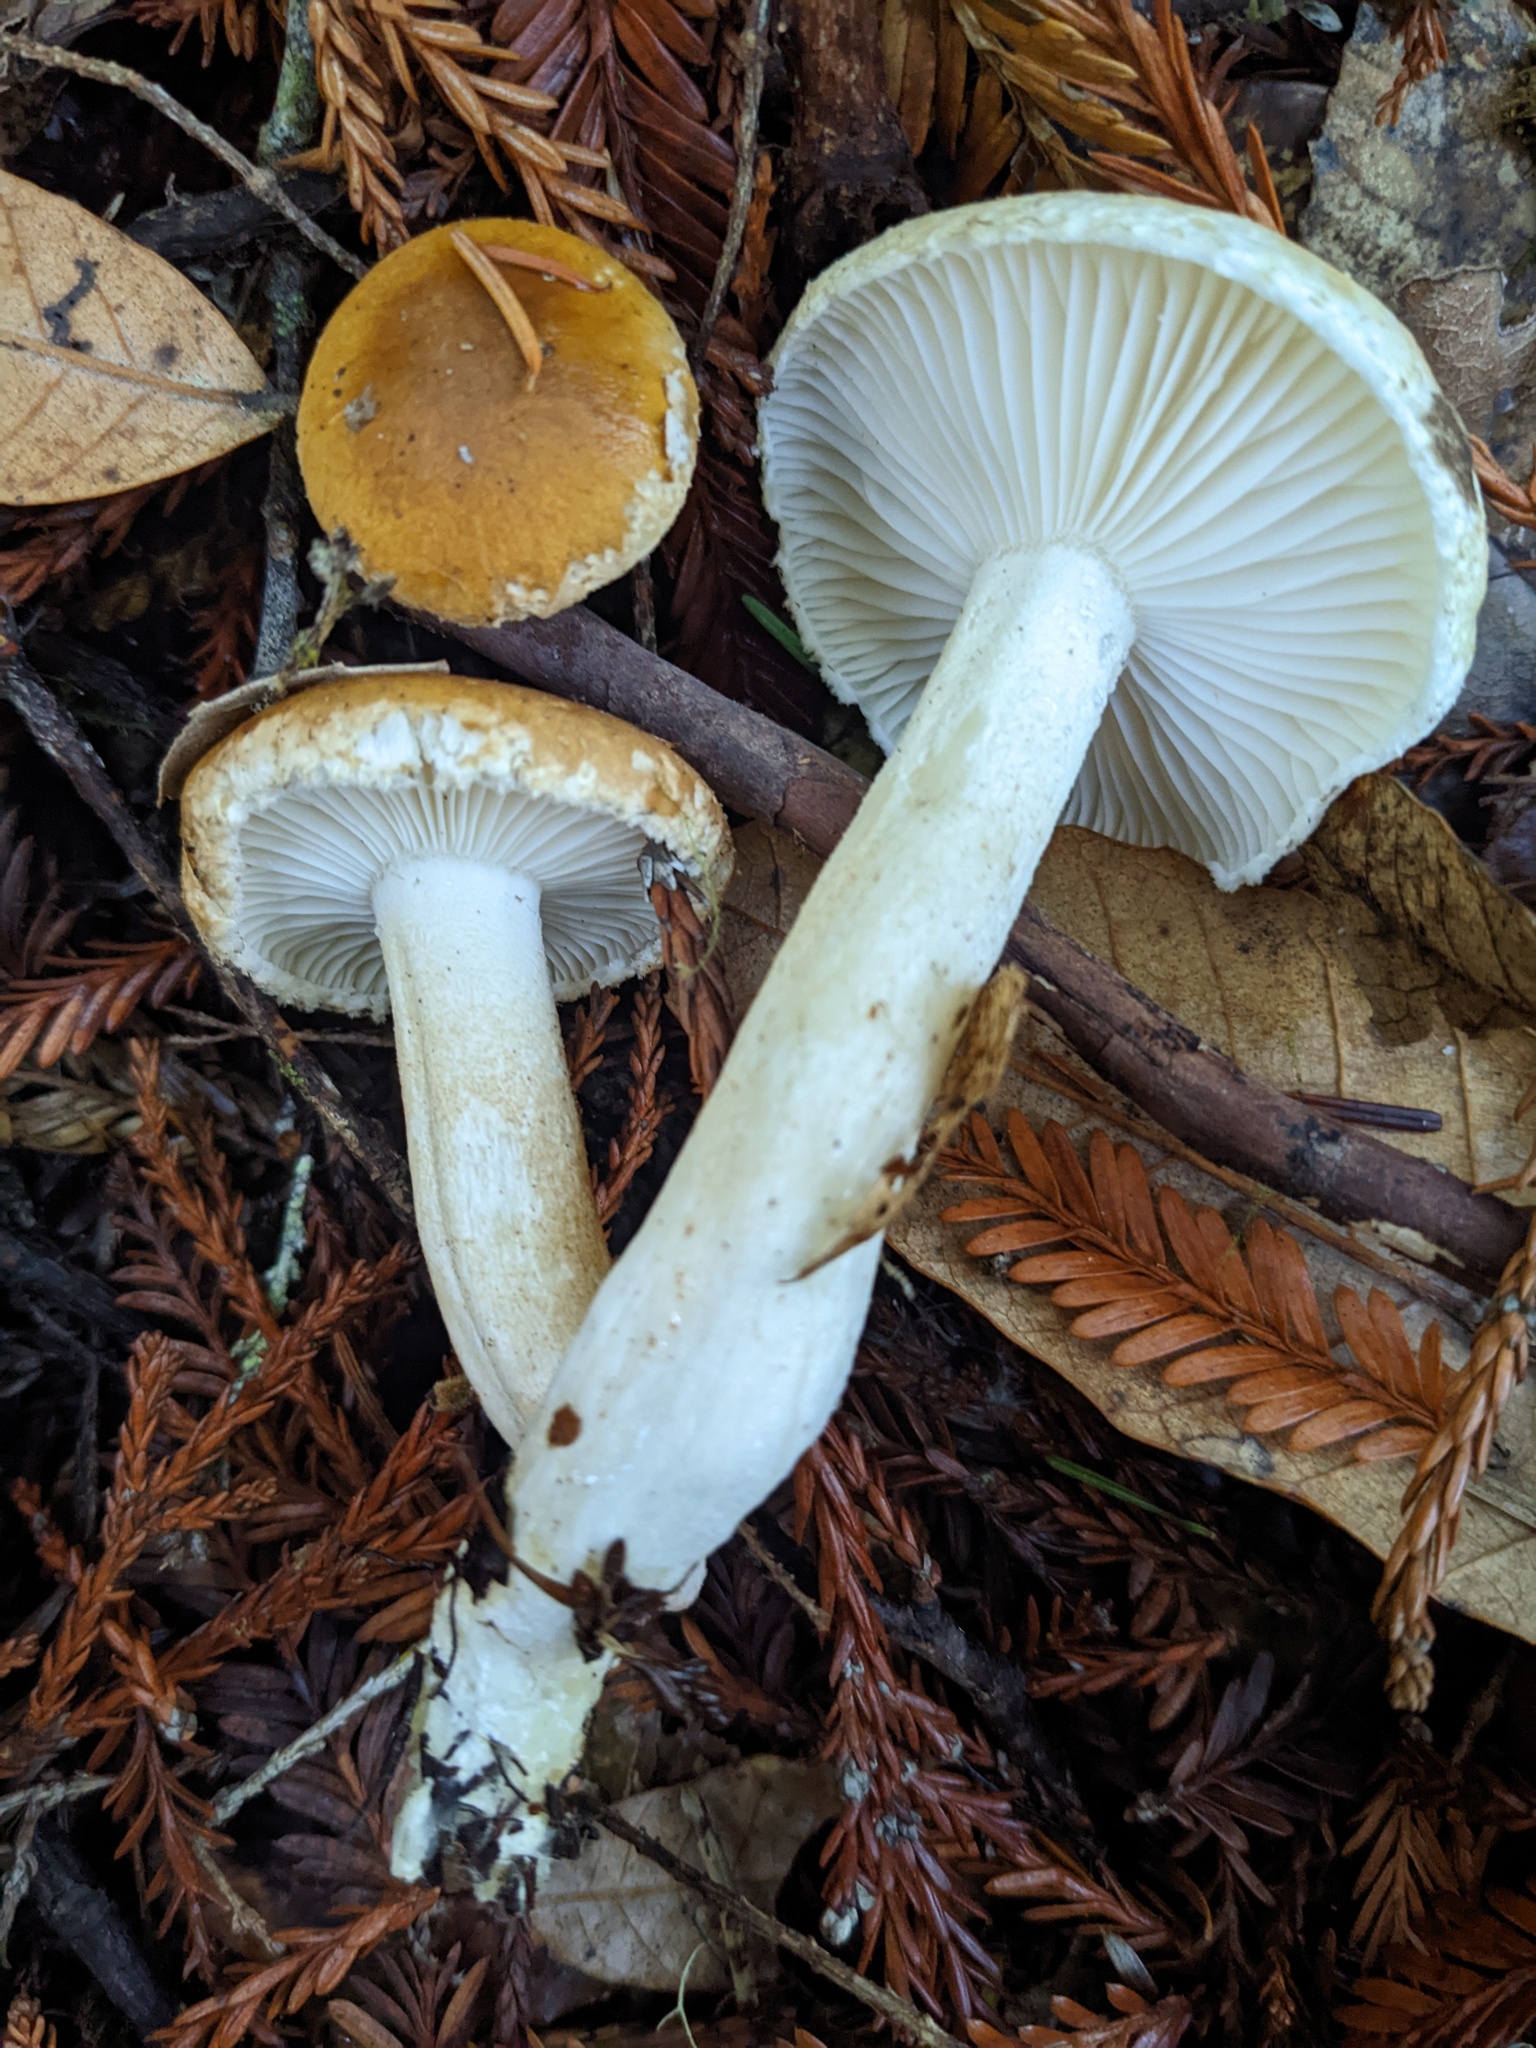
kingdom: Fungi
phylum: Basidiomycota
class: Agaricomycetes
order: Agaricales
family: Hygrophoraceae
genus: Hygrophorus
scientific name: Hygrophorus bakerensis
